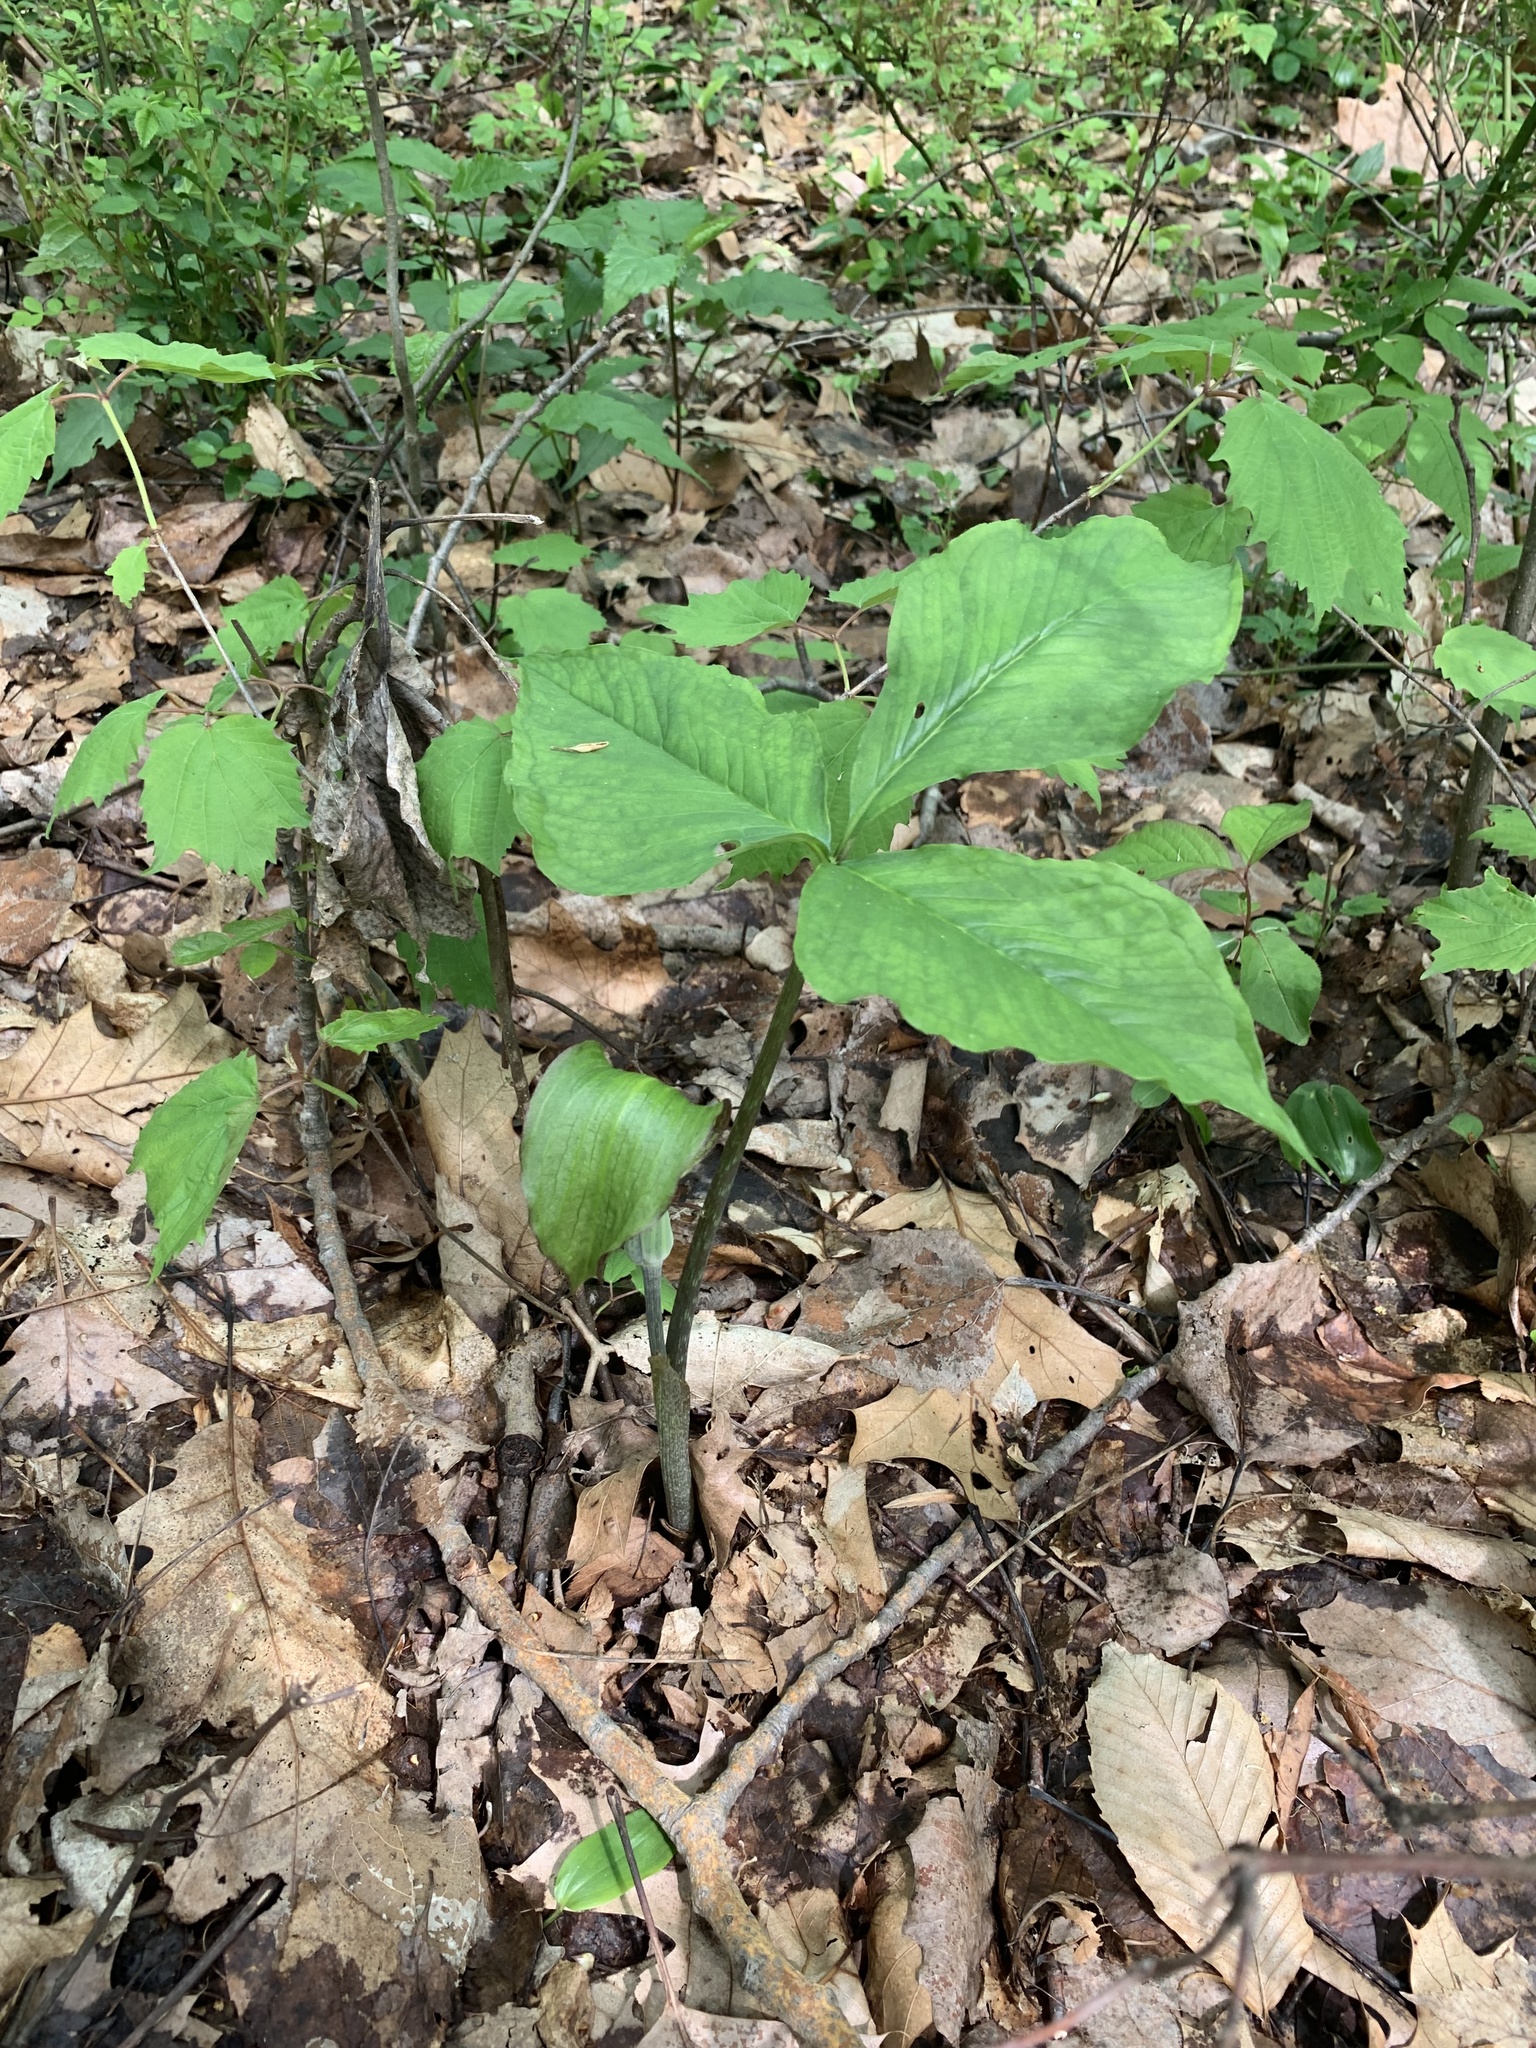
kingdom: Plantae
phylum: Tracheophyta
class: Liliopsida
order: Alismatales
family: Araceae
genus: Arisaema
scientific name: Arisaema triphyllum
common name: Jack-in-the-pulpit
